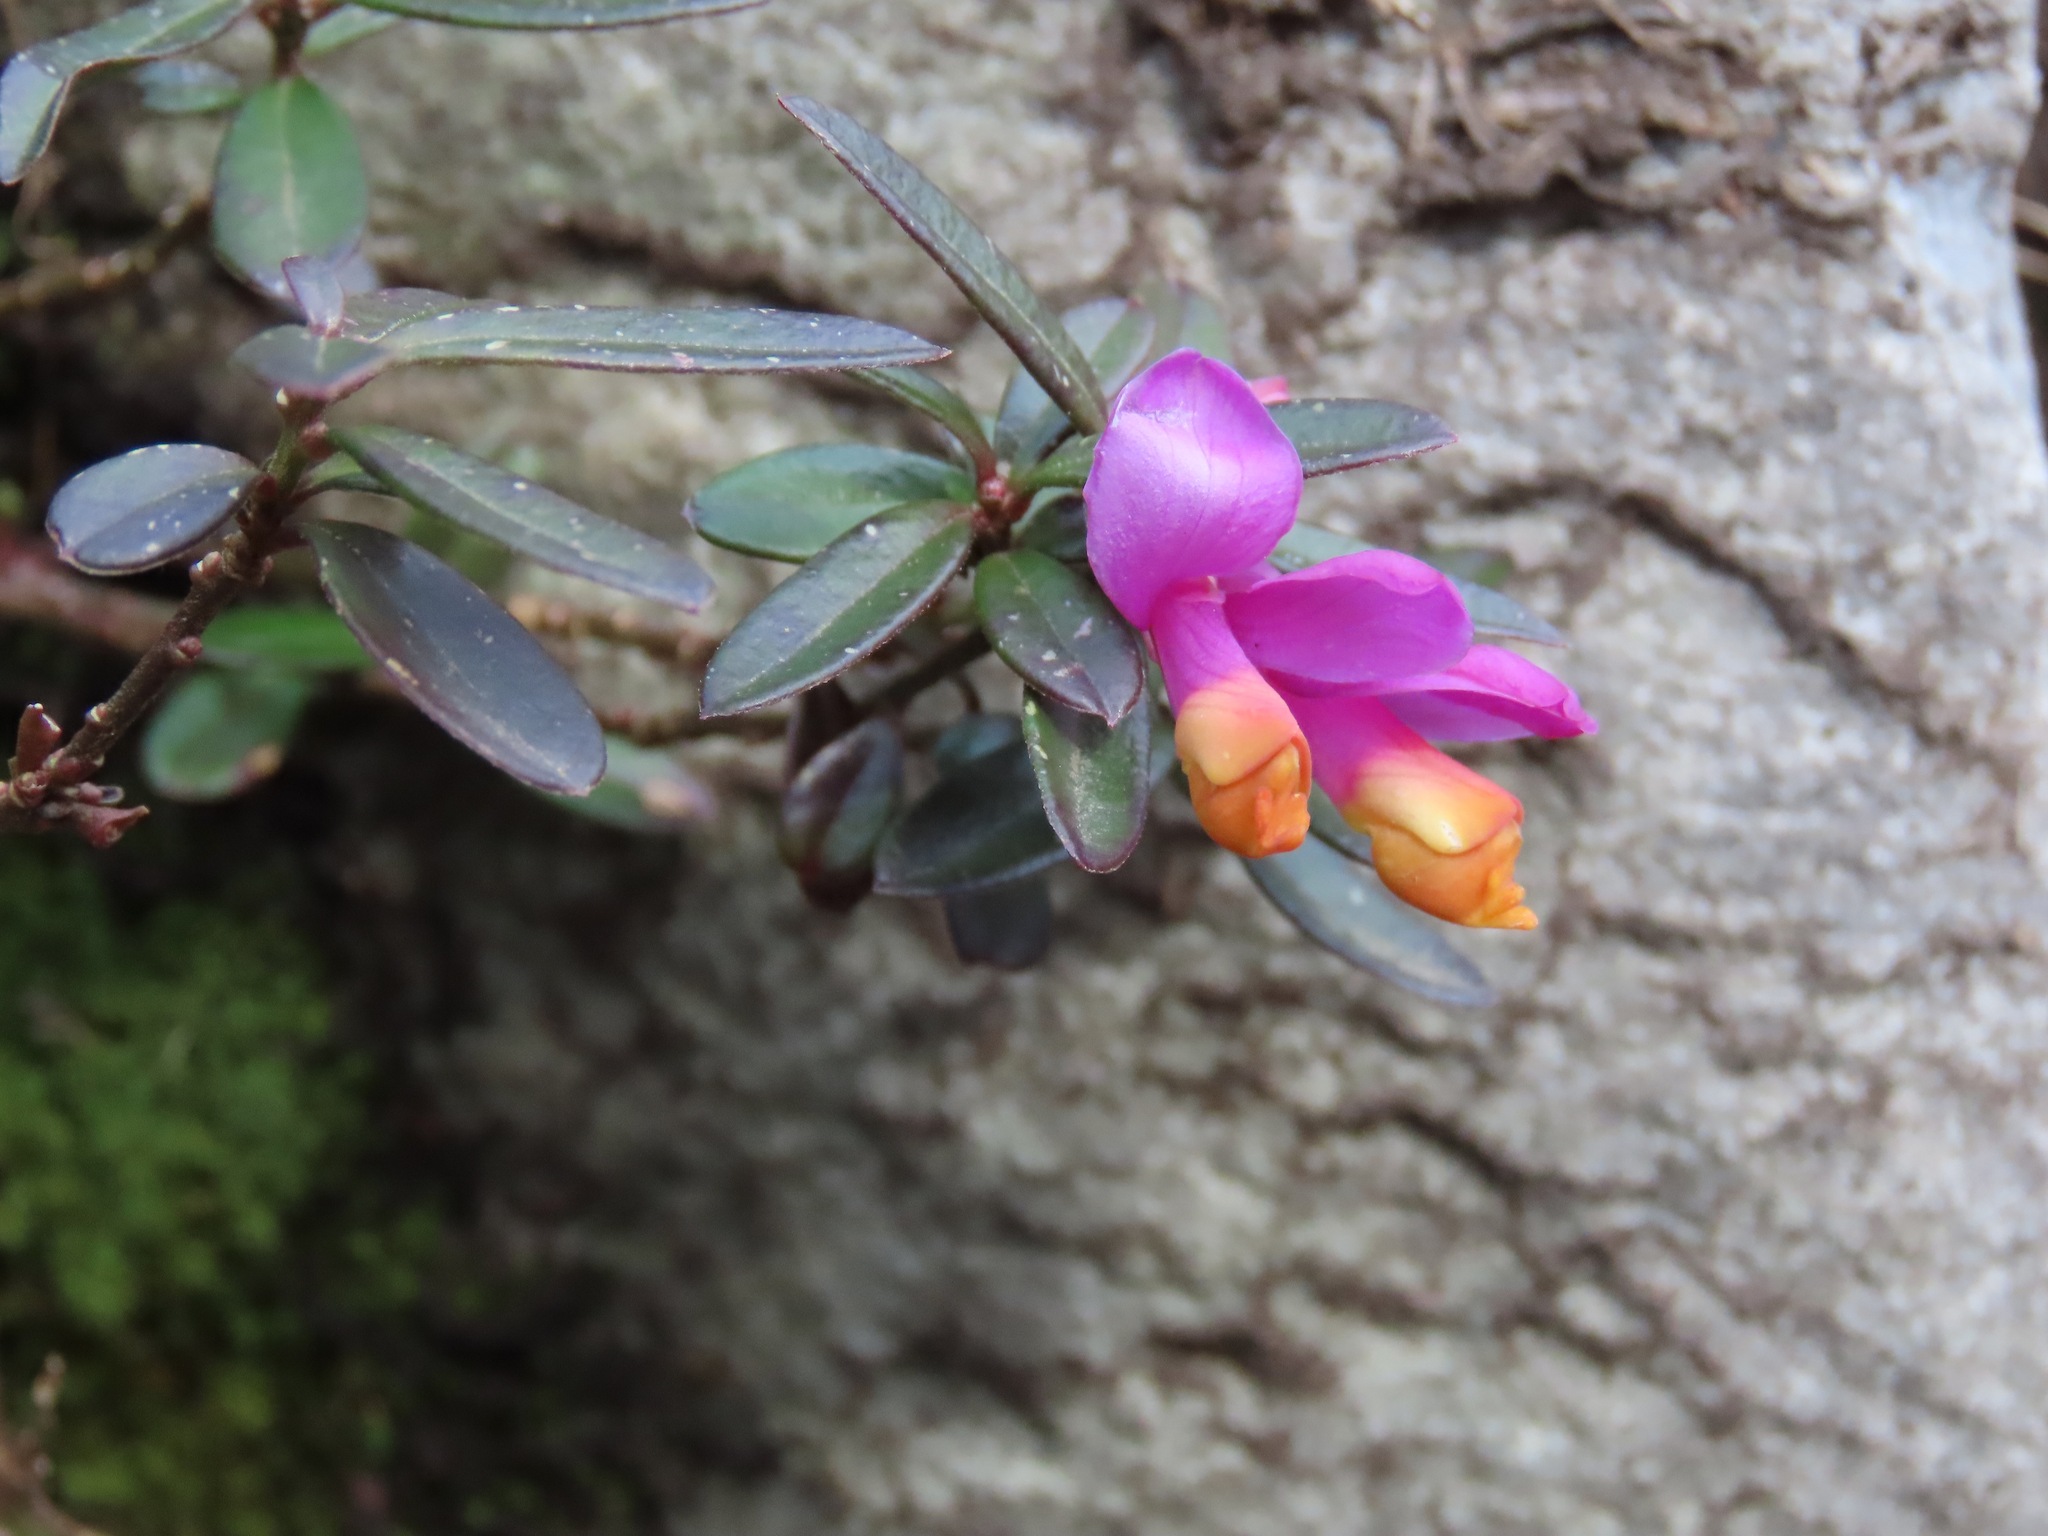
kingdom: Plantae
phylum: Tracheophyta
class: Magnoliopsida
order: Fabales
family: Polygalaceae
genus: Polygaloides
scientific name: Polygaloides chamaebuxus
